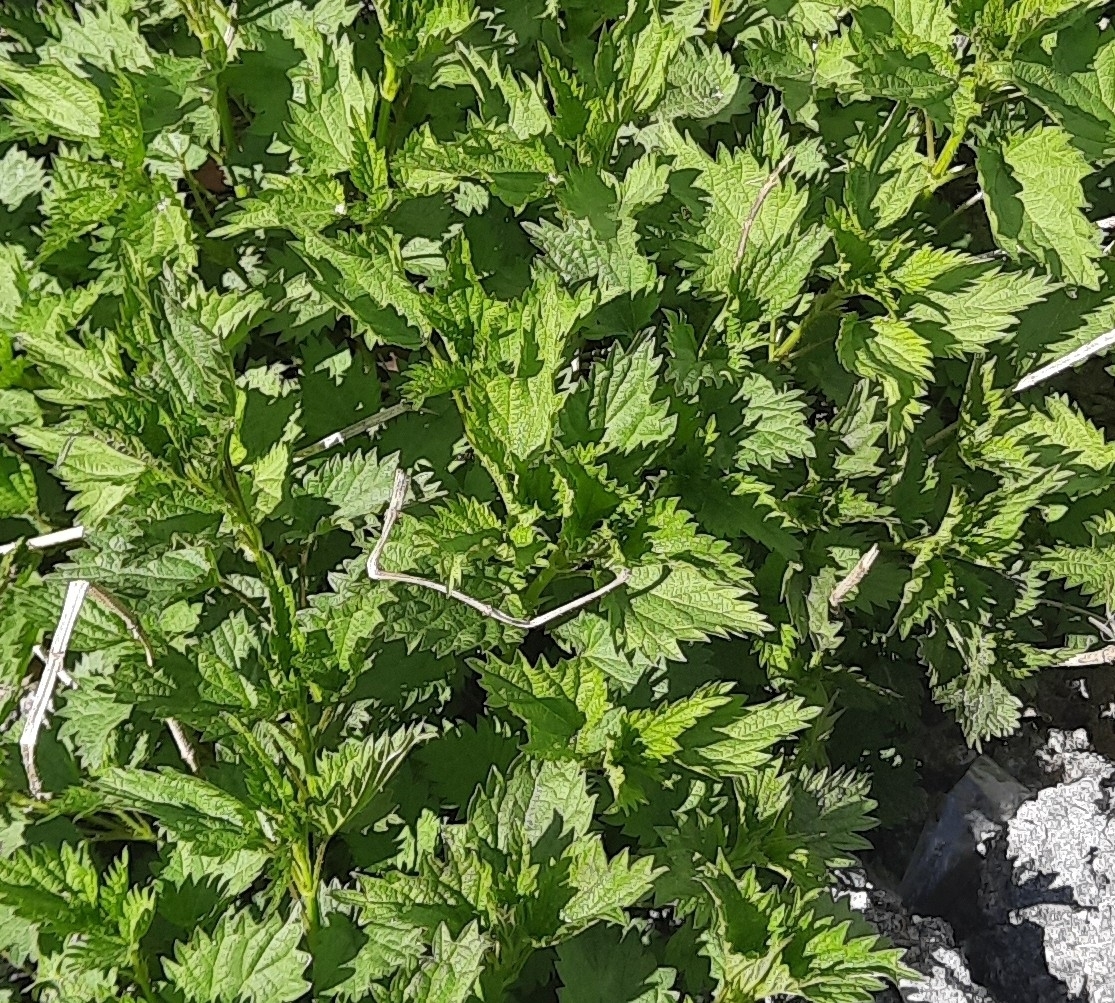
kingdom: Plantae
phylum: Tracheophyta
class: Magnoliopsida
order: Rosales
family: Urticaceae
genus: Urtica
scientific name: Urtica dioica
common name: Common nettle
